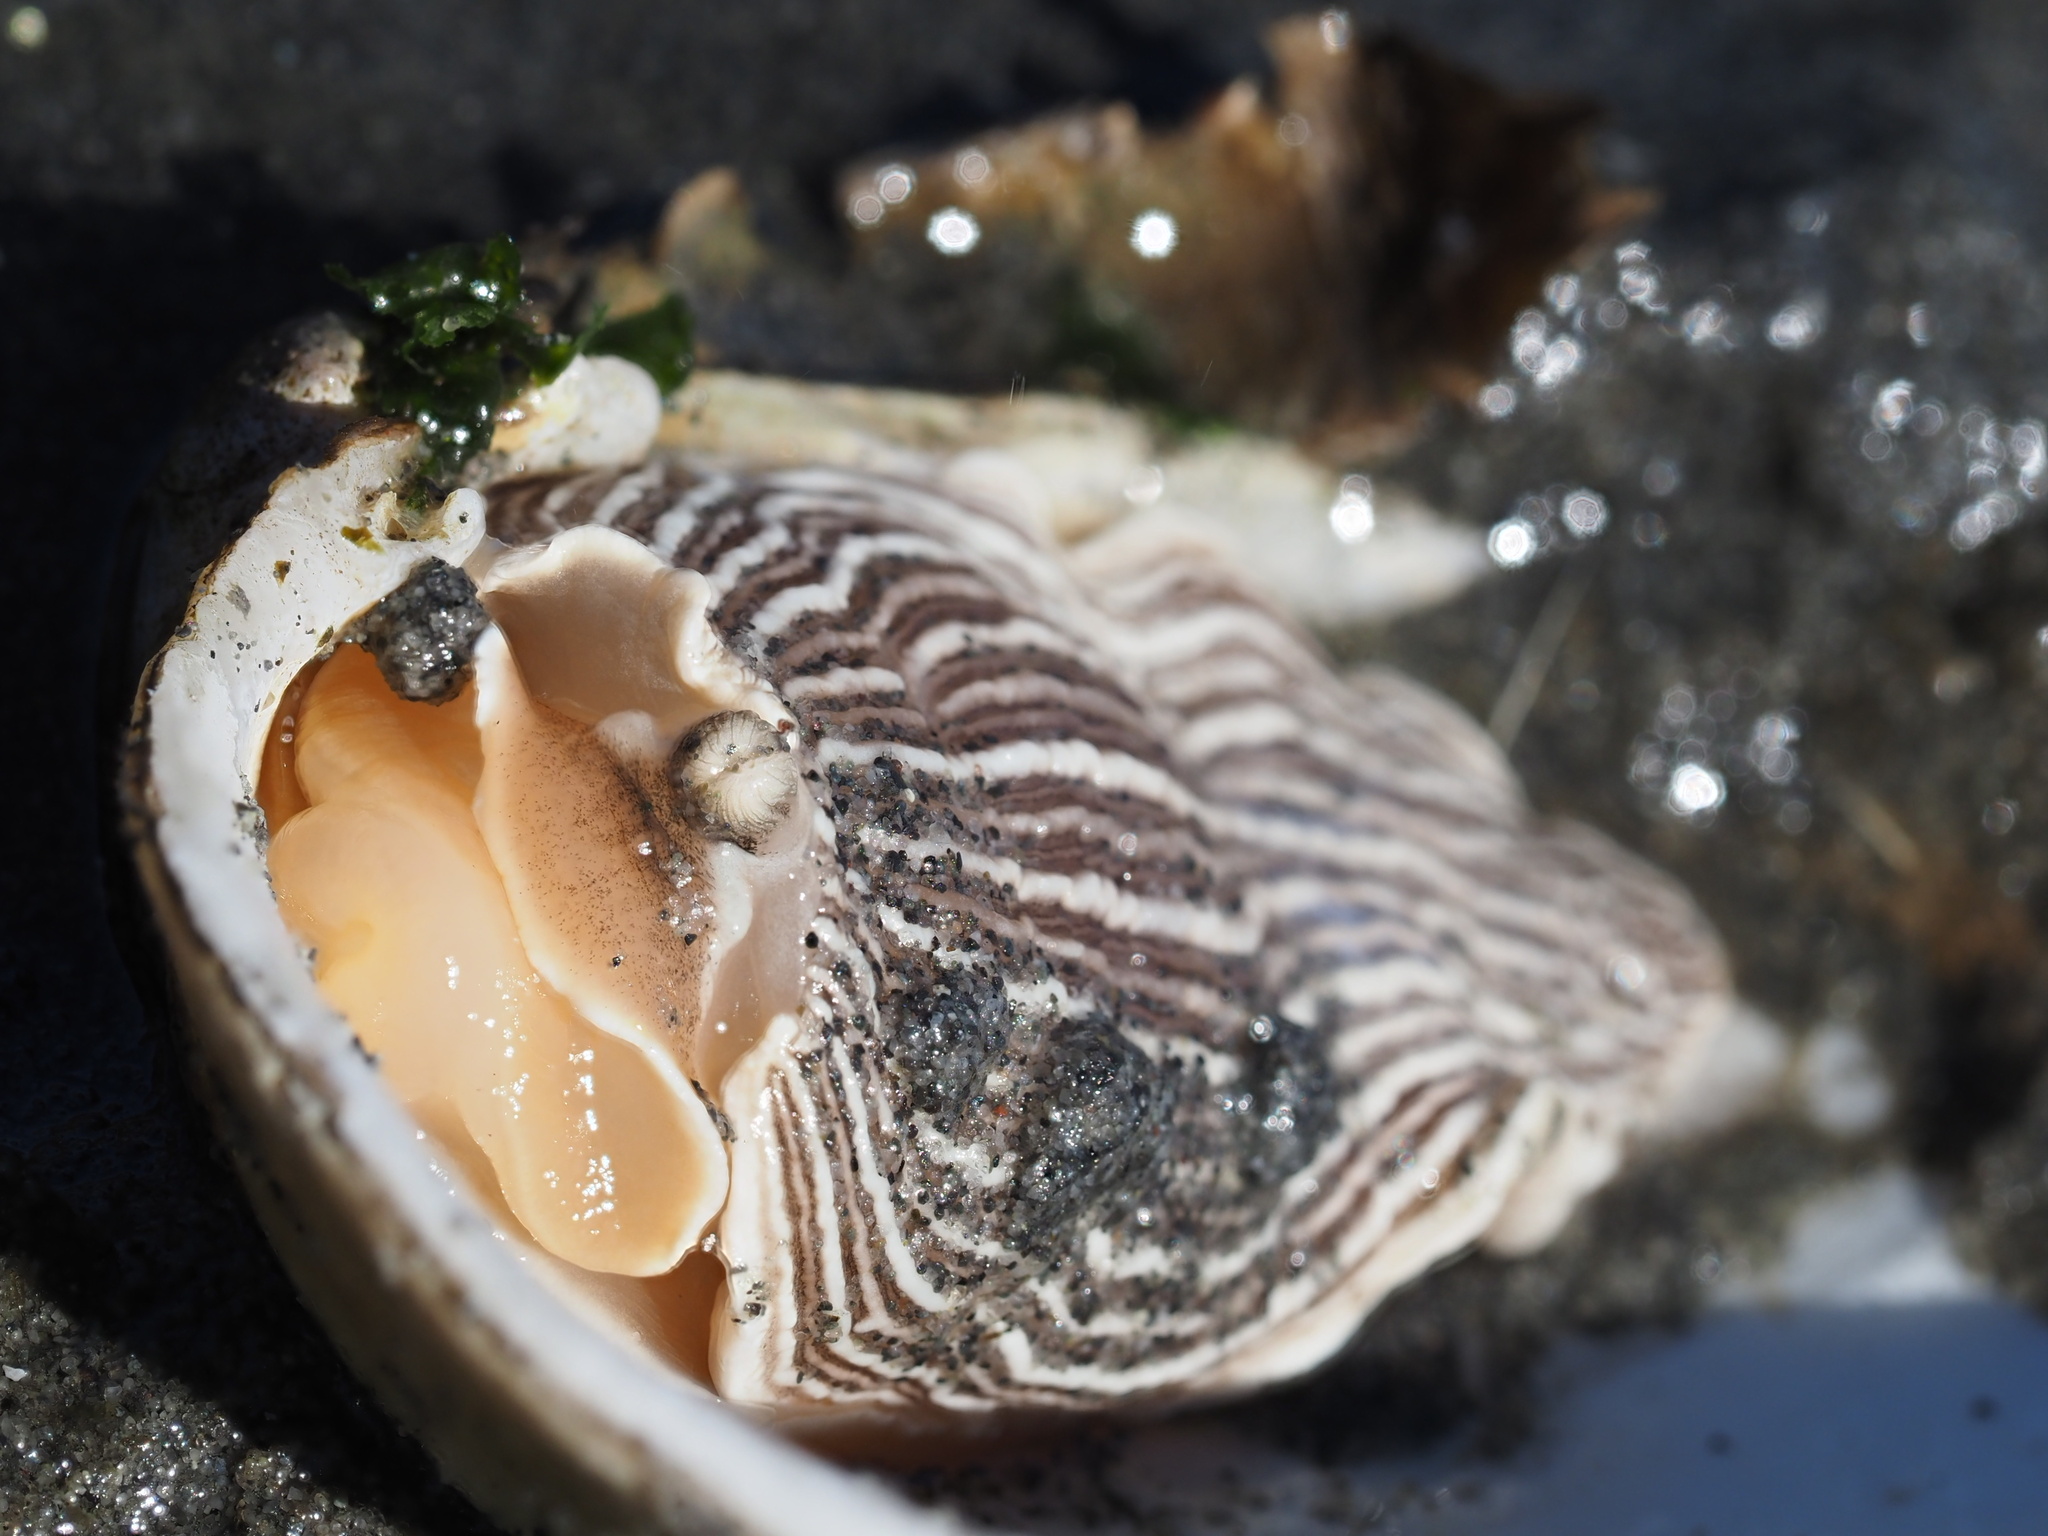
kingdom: Animalia
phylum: Mollusca
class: Gastropoda
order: Nudibranchia
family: Arminidae
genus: Armina
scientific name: Armina californica
